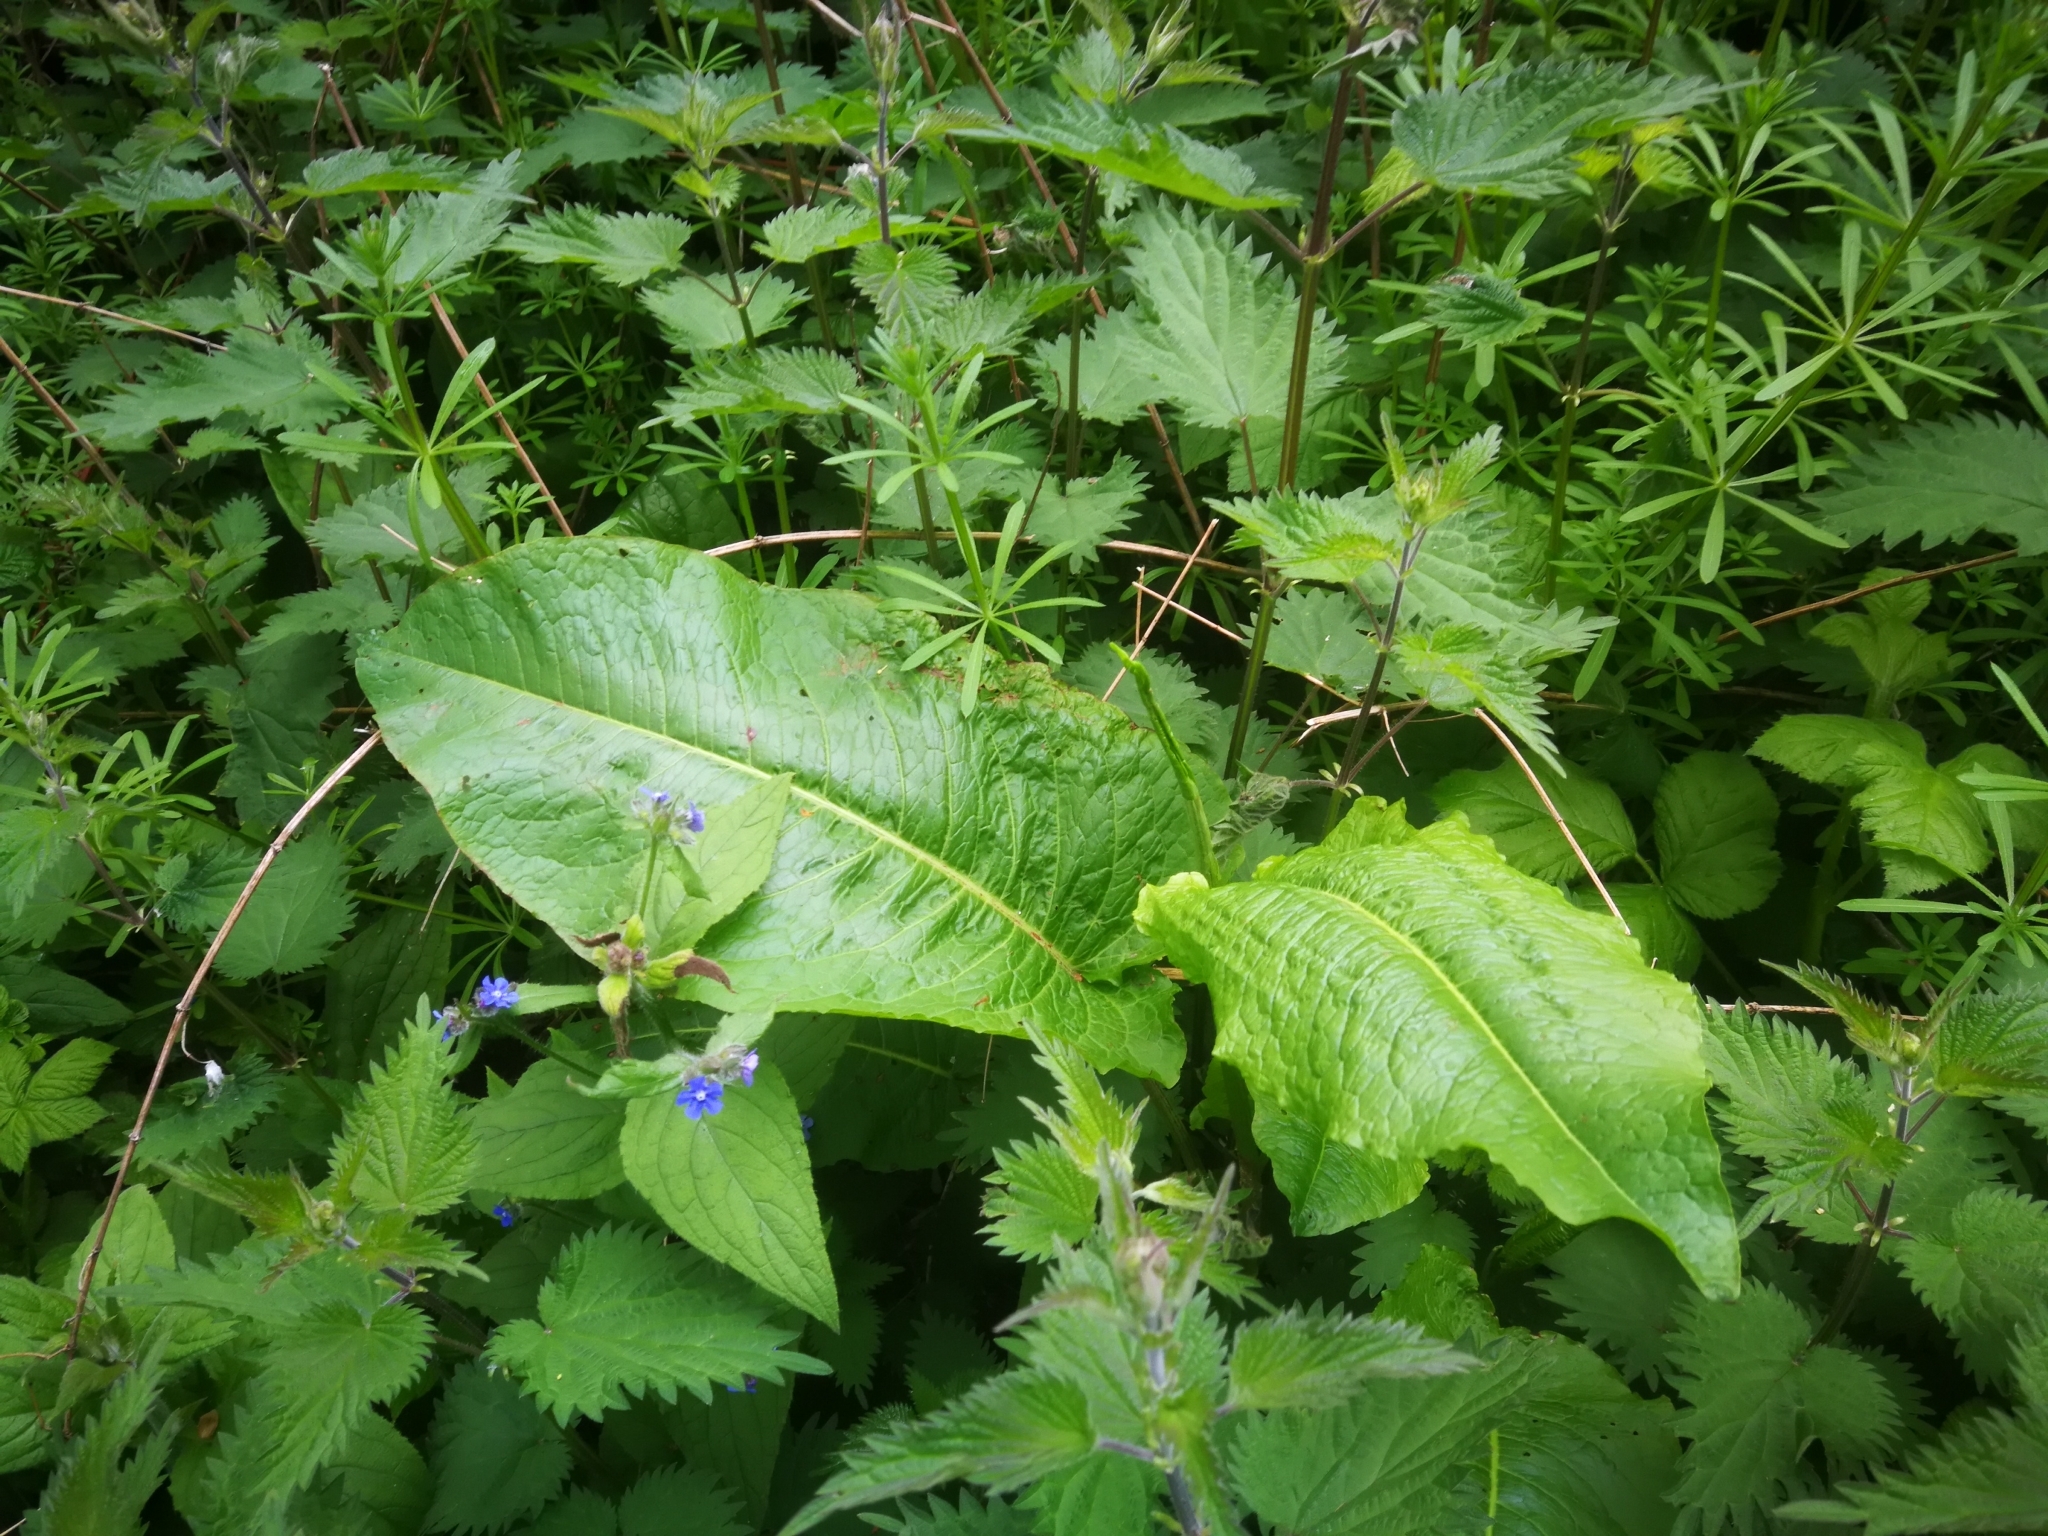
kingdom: Plantae
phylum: Tracheophyta
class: Magnoliopsida
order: Caryophyllales
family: Polygonaceae
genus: Rumex
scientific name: Rumex obtusifolius
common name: Bitter dock
